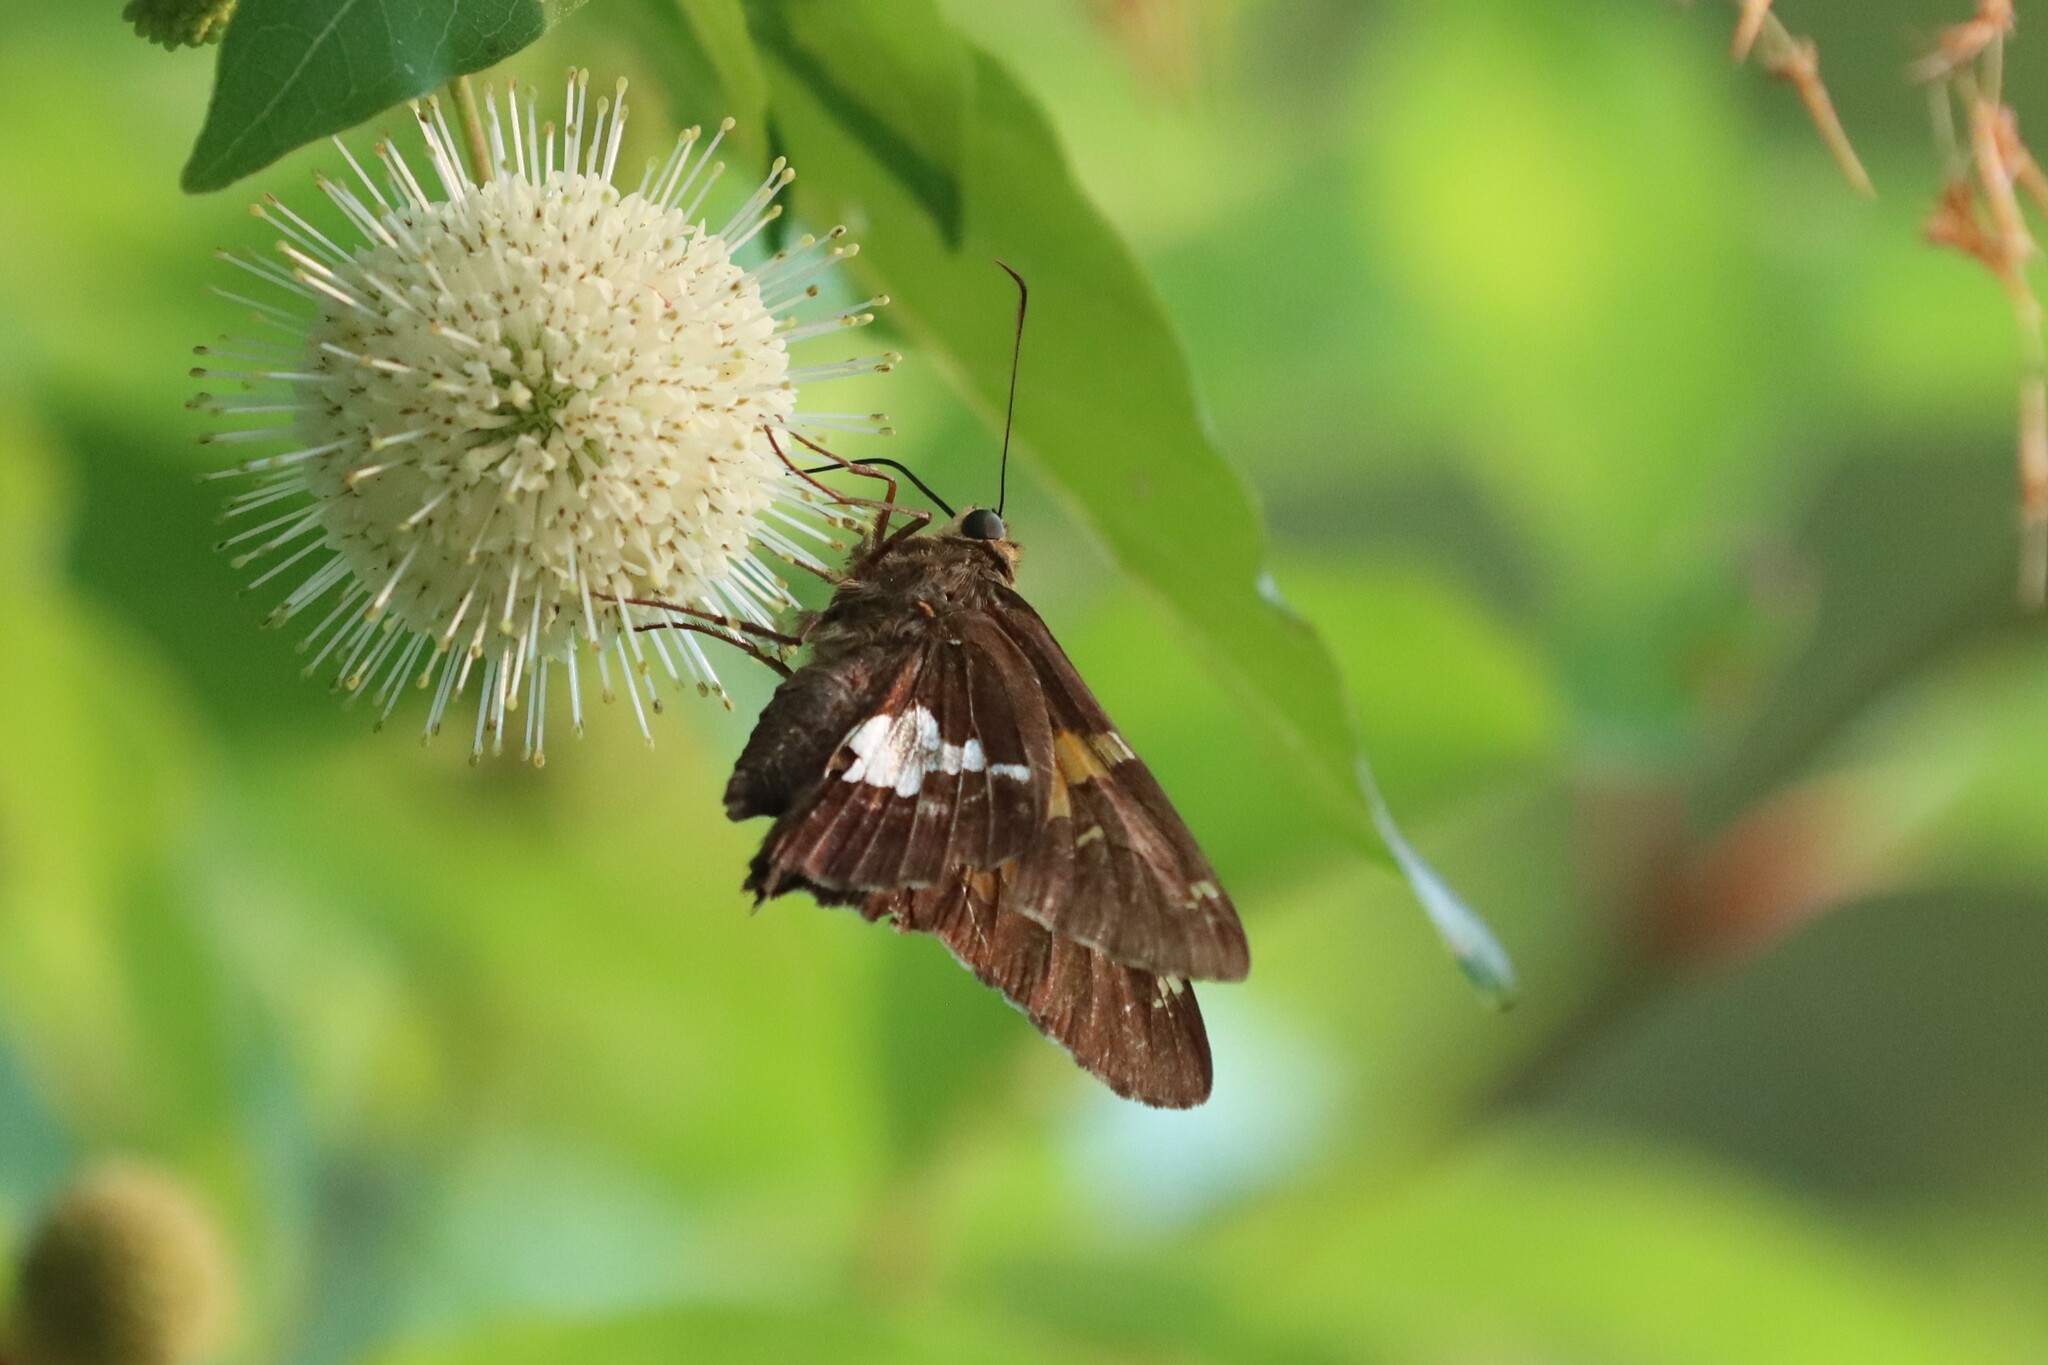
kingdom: Animalia
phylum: Arthropoda
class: Insecta
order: Lepidoptera
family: Hesperiidae
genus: Epargyreus
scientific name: Epargyreus clarus
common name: Silver-spotted skipper
